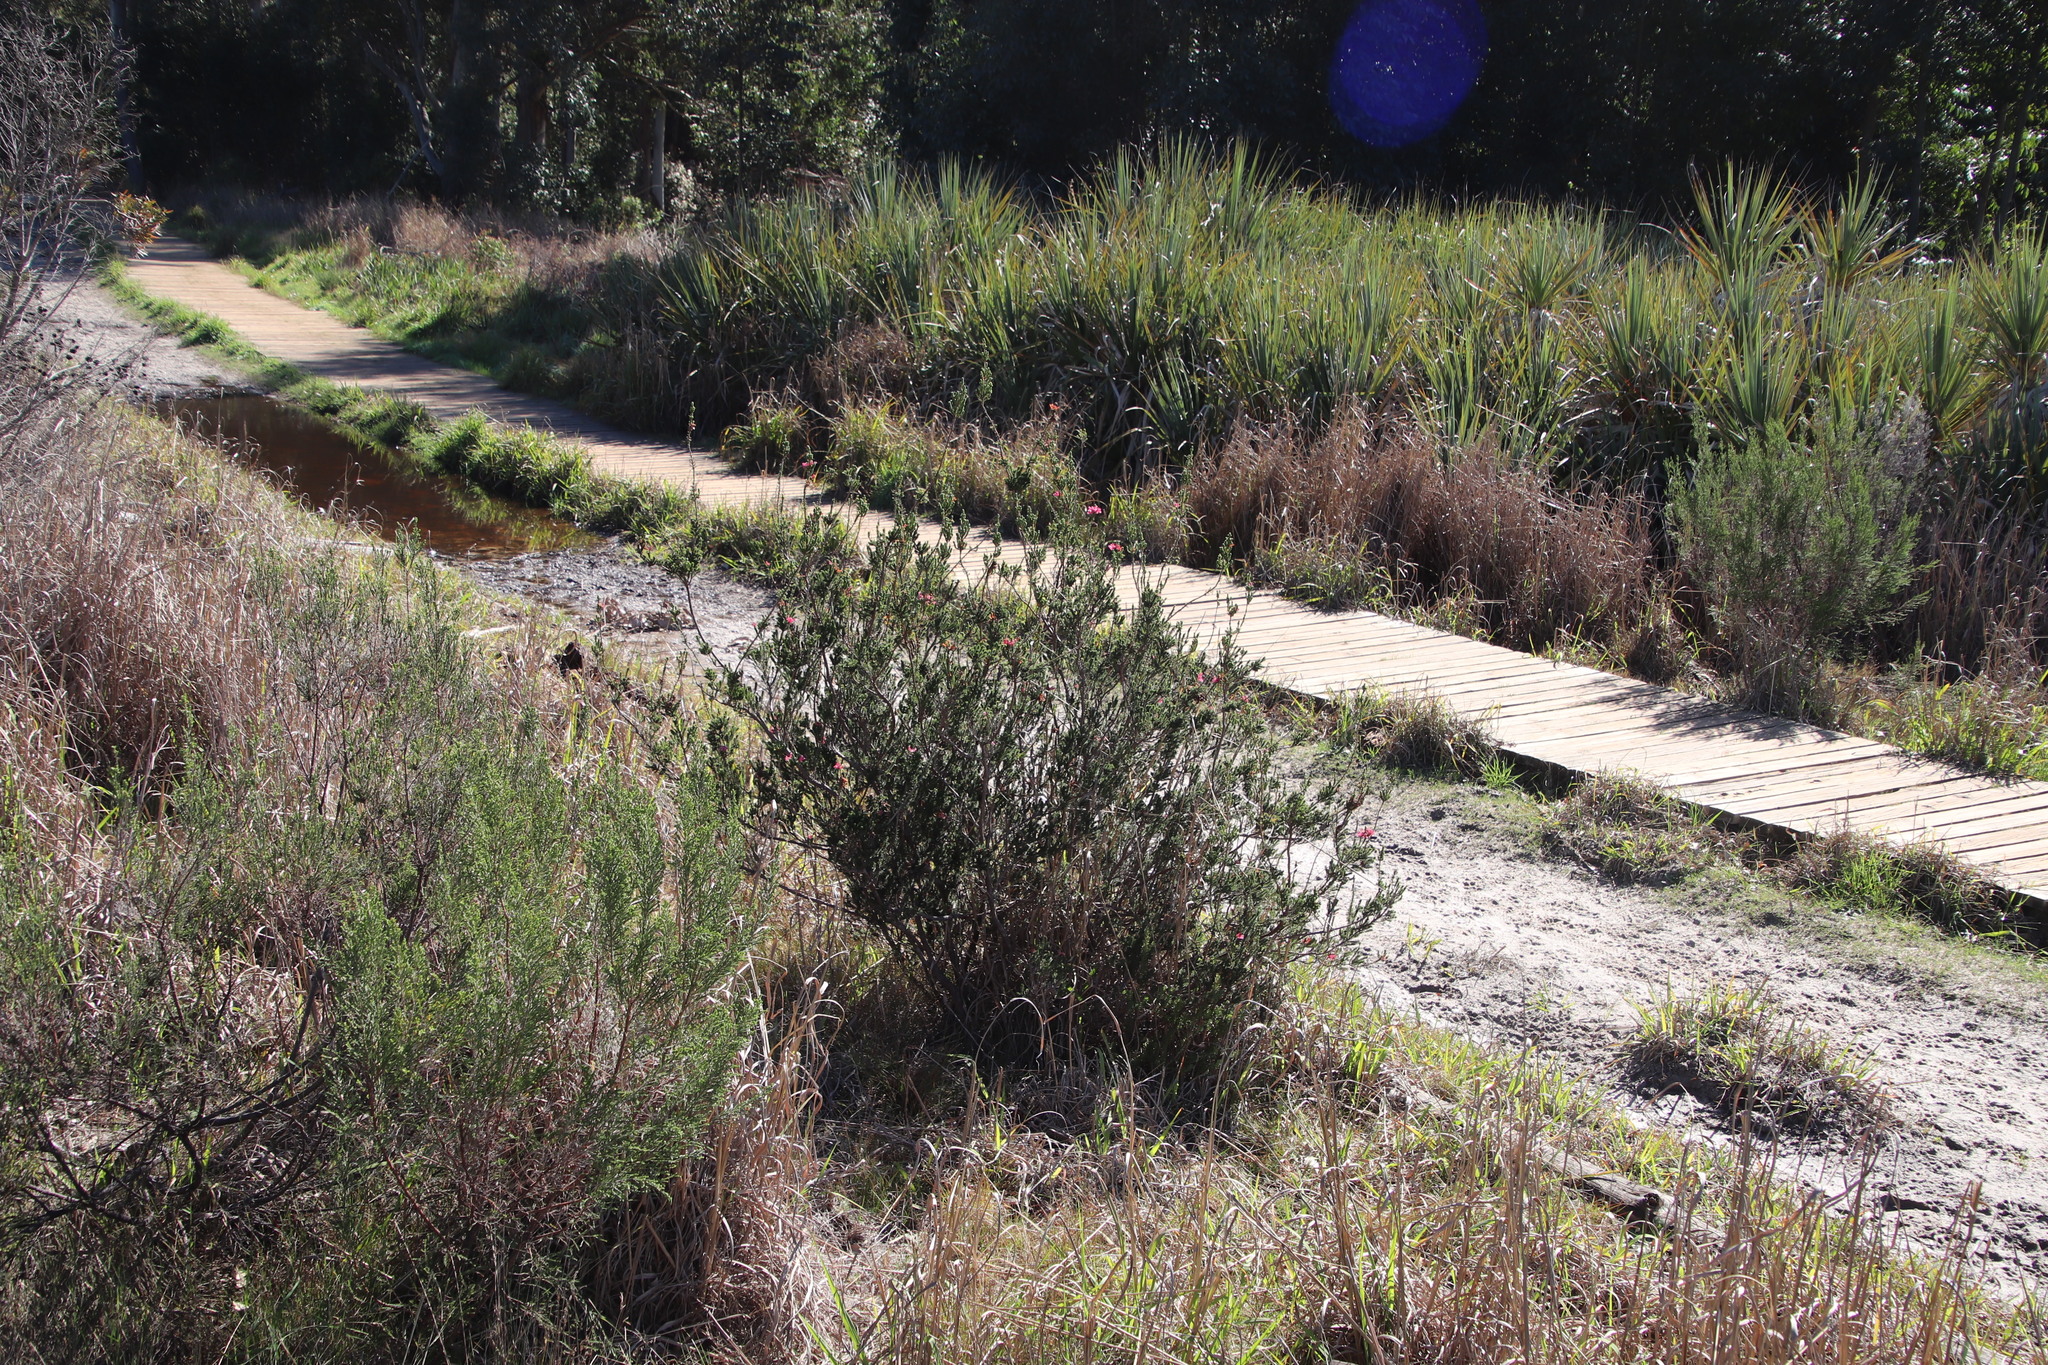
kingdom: Plantae
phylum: Tracheophyta
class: Magnoliopsida
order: Ericales
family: Ericaceae
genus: Erica
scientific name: Erica verticillata
